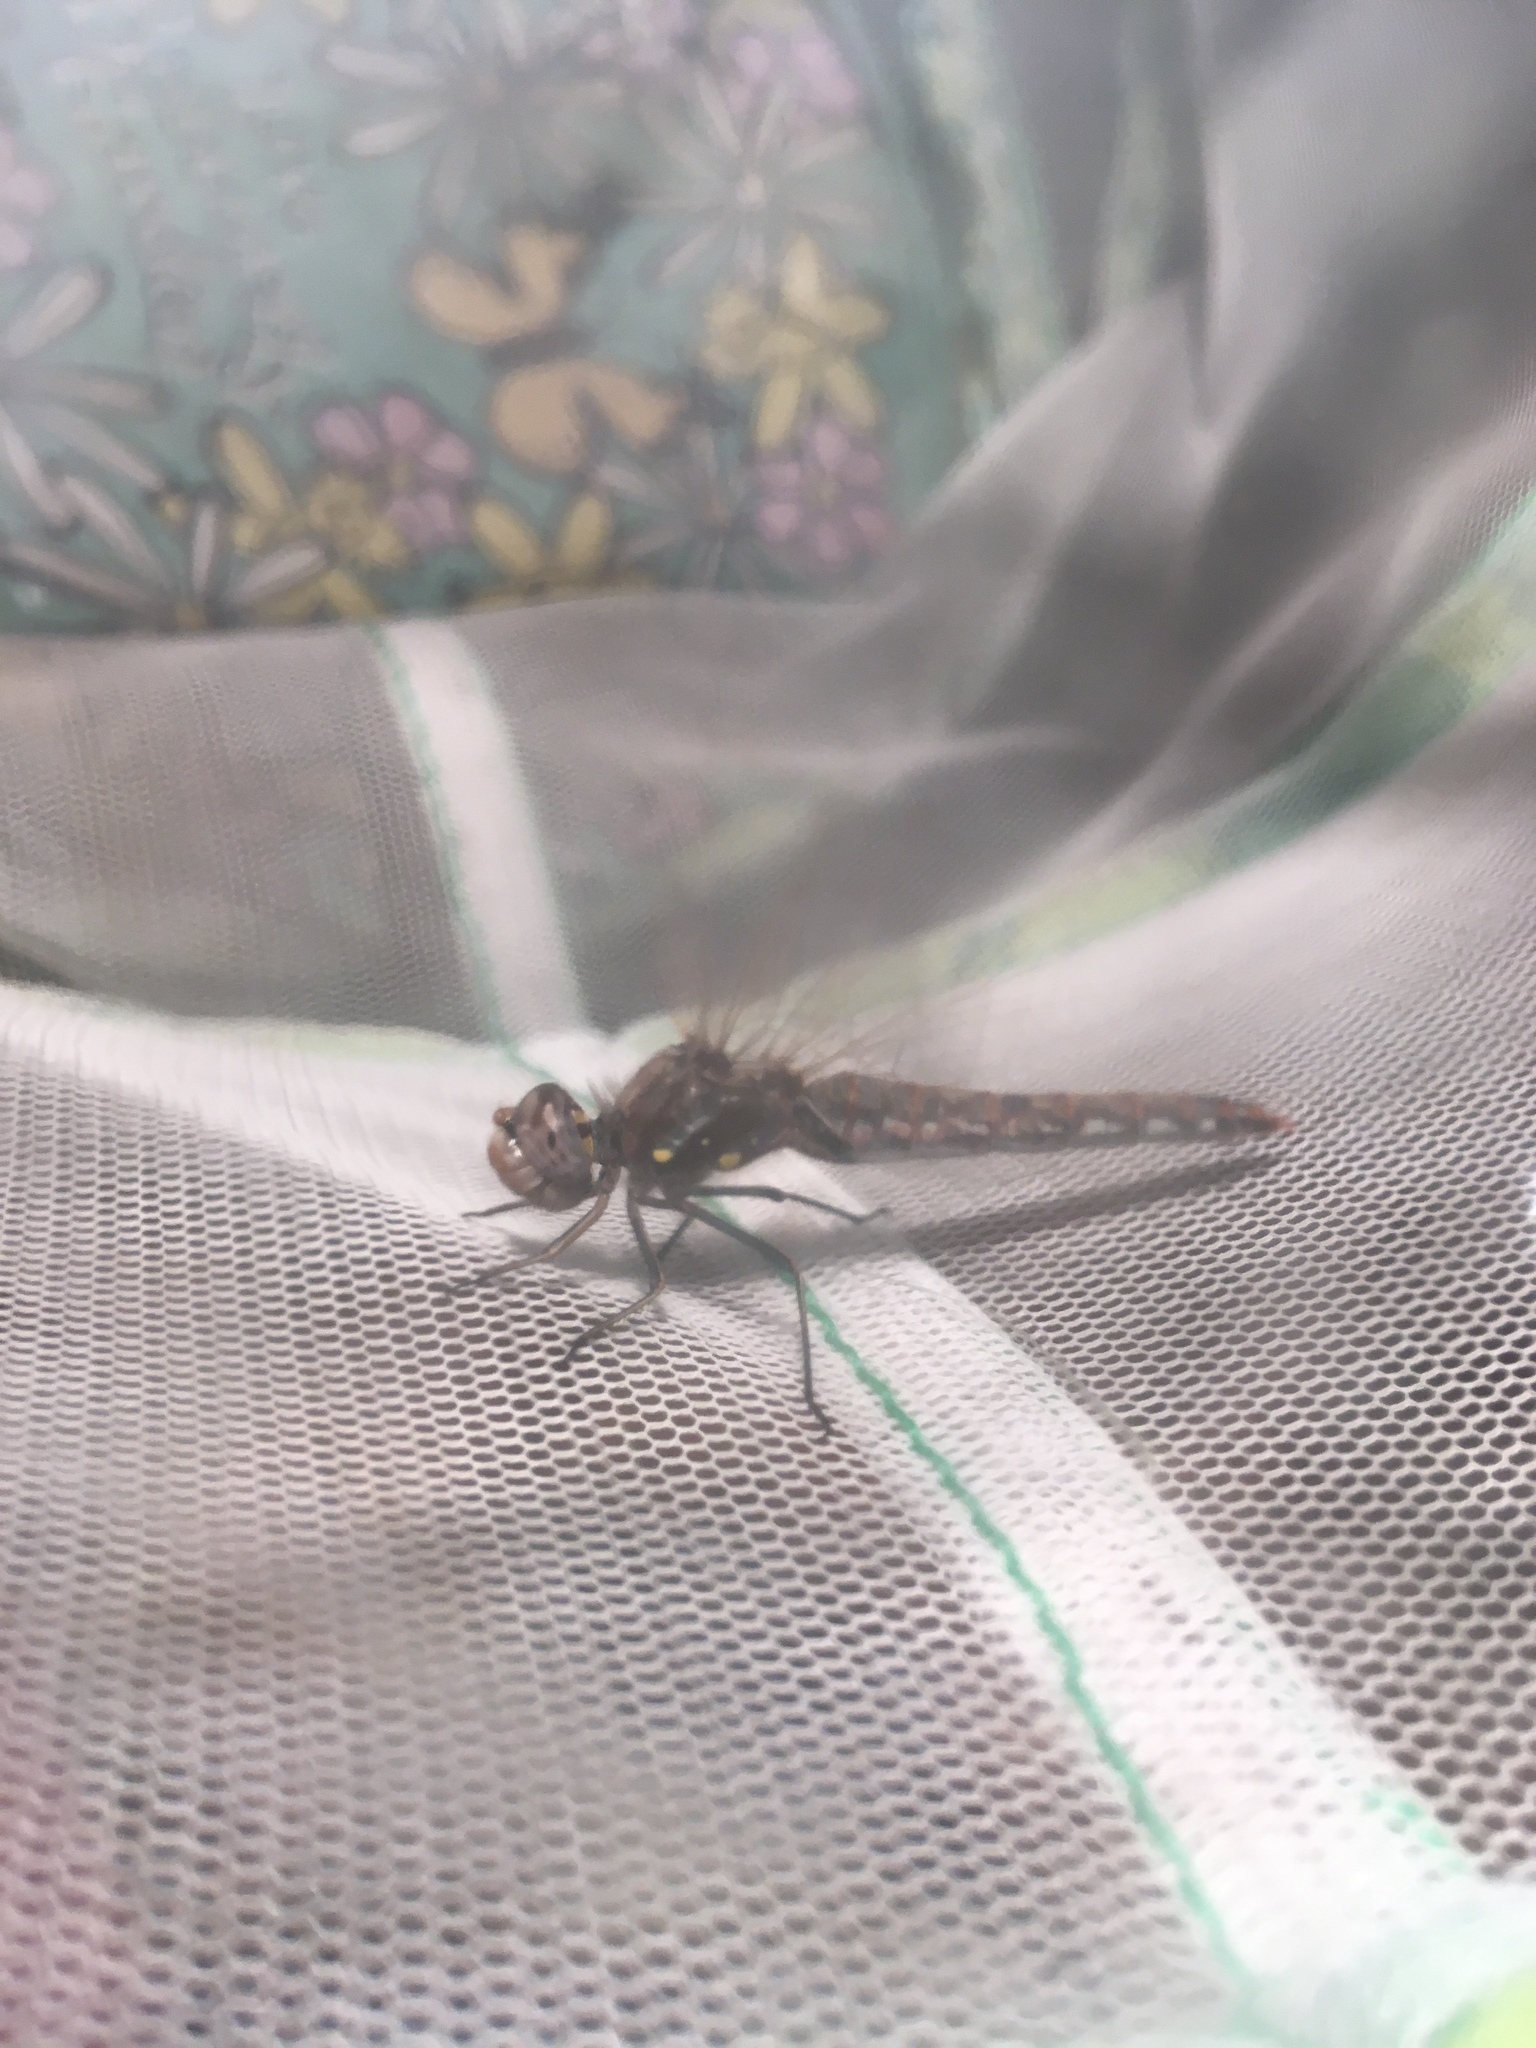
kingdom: Animalia
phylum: Arthropoda
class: Insecta
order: Odonata
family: Libellulidae
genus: Sympetrum
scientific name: Sympetrum corruptum
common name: Variegated meadowhawk
